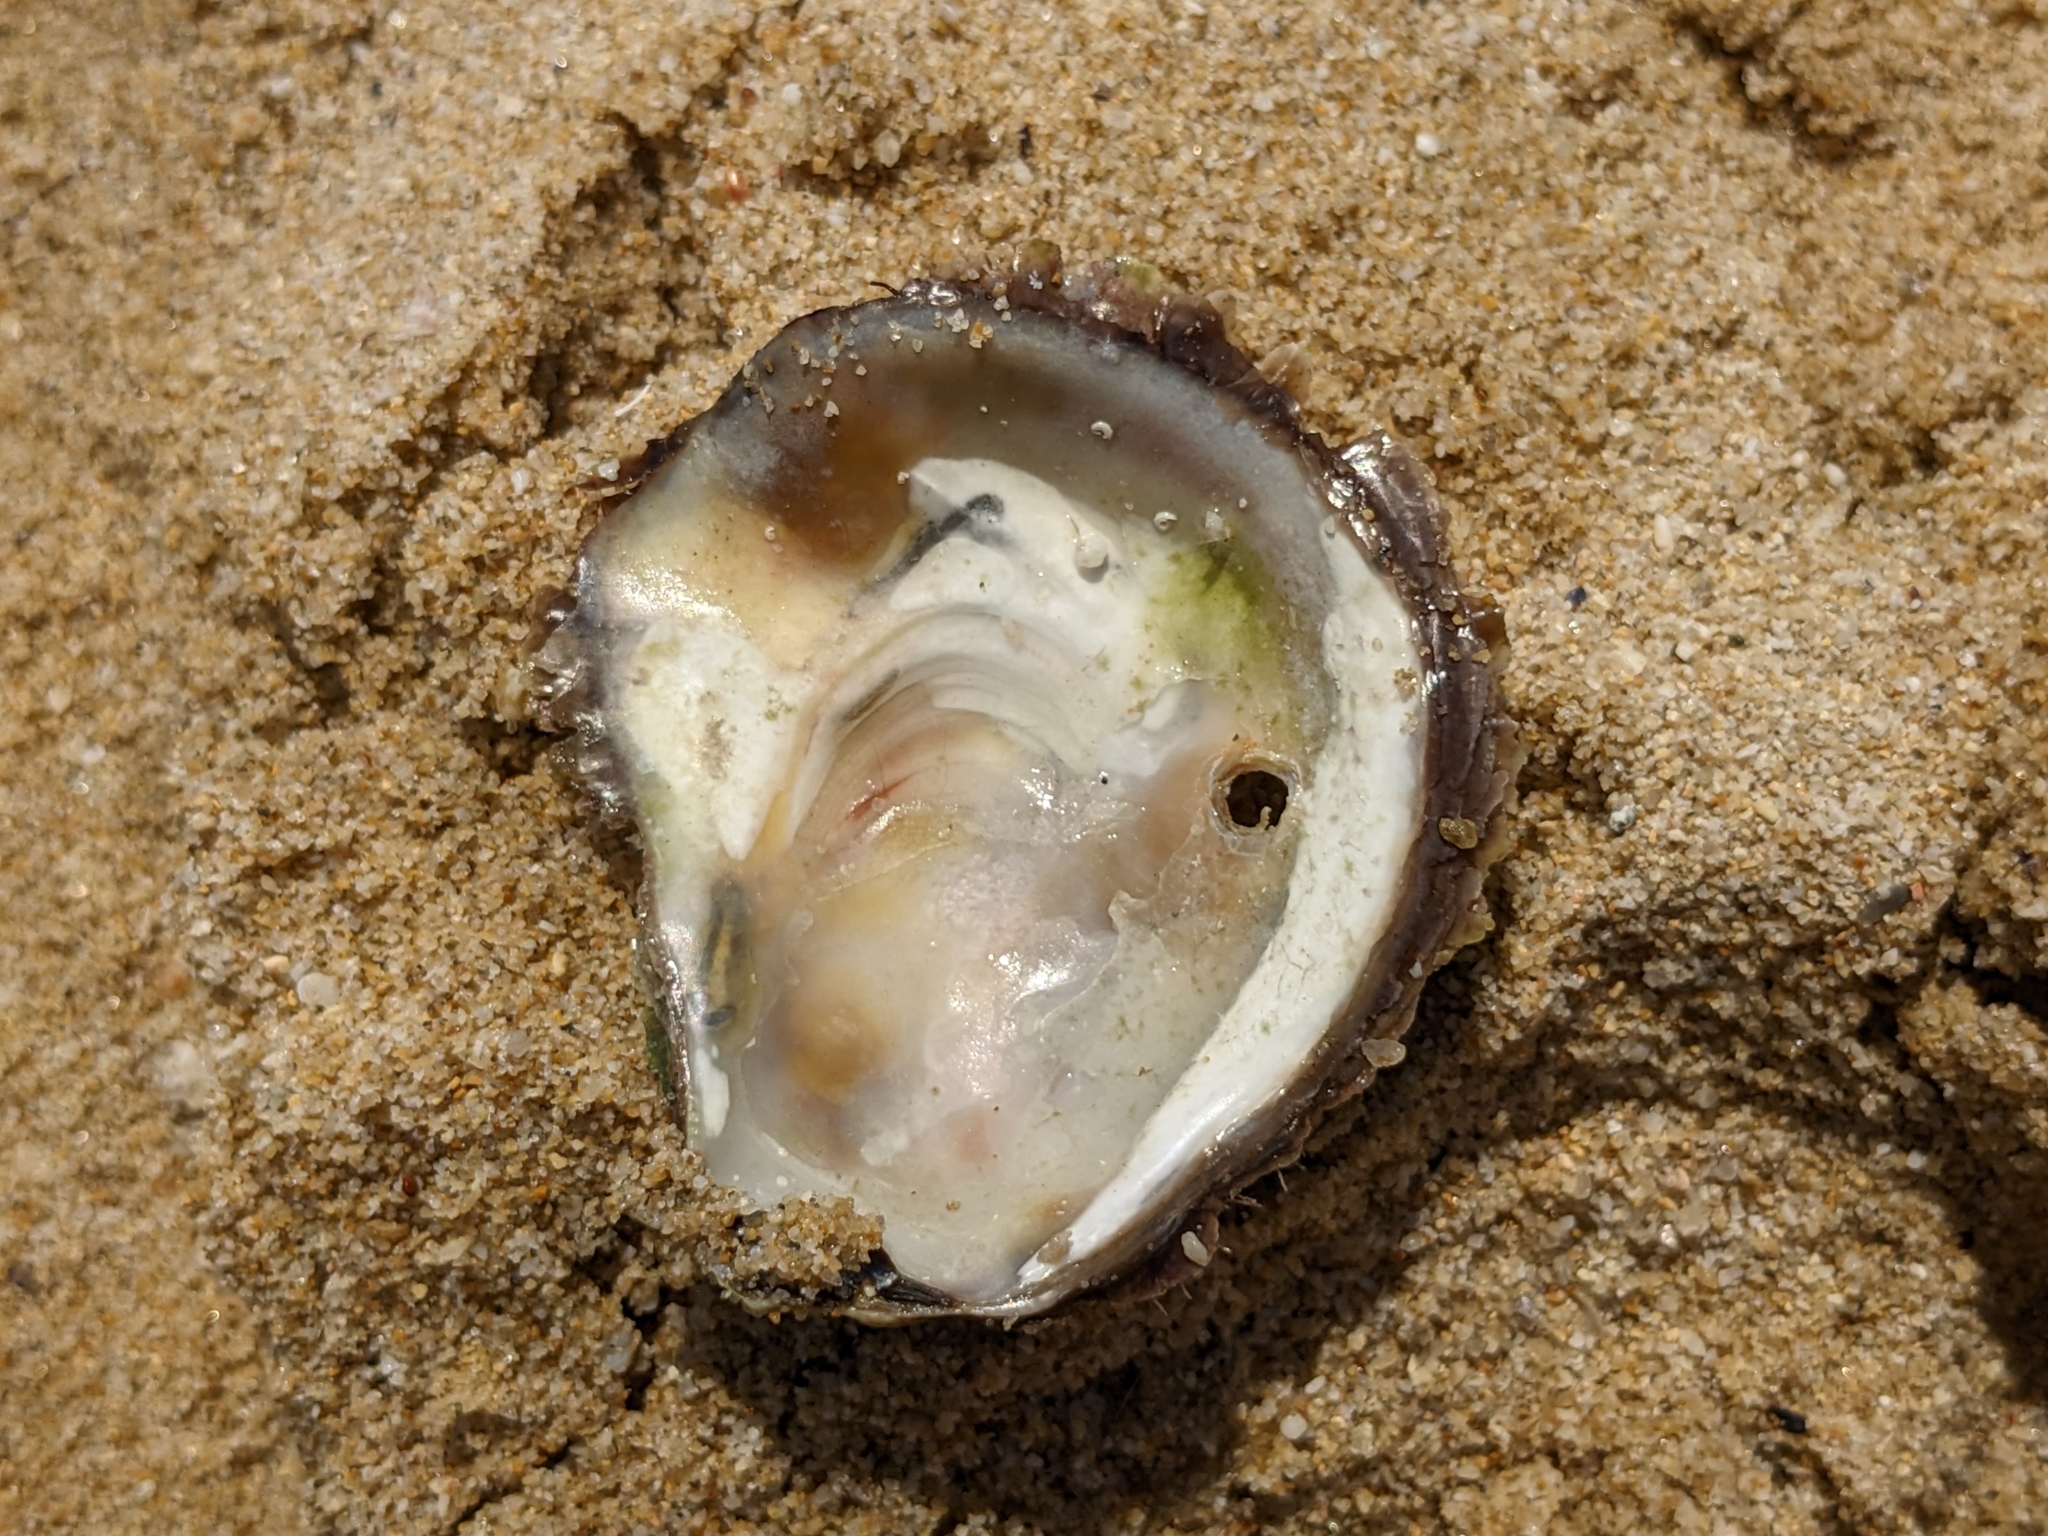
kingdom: Animalia
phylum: Mollusca
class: Bivalvia
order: Ostreida
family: Ostreidae
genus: Ostrea
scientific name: Ostrea edulis
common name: Flat oyster
